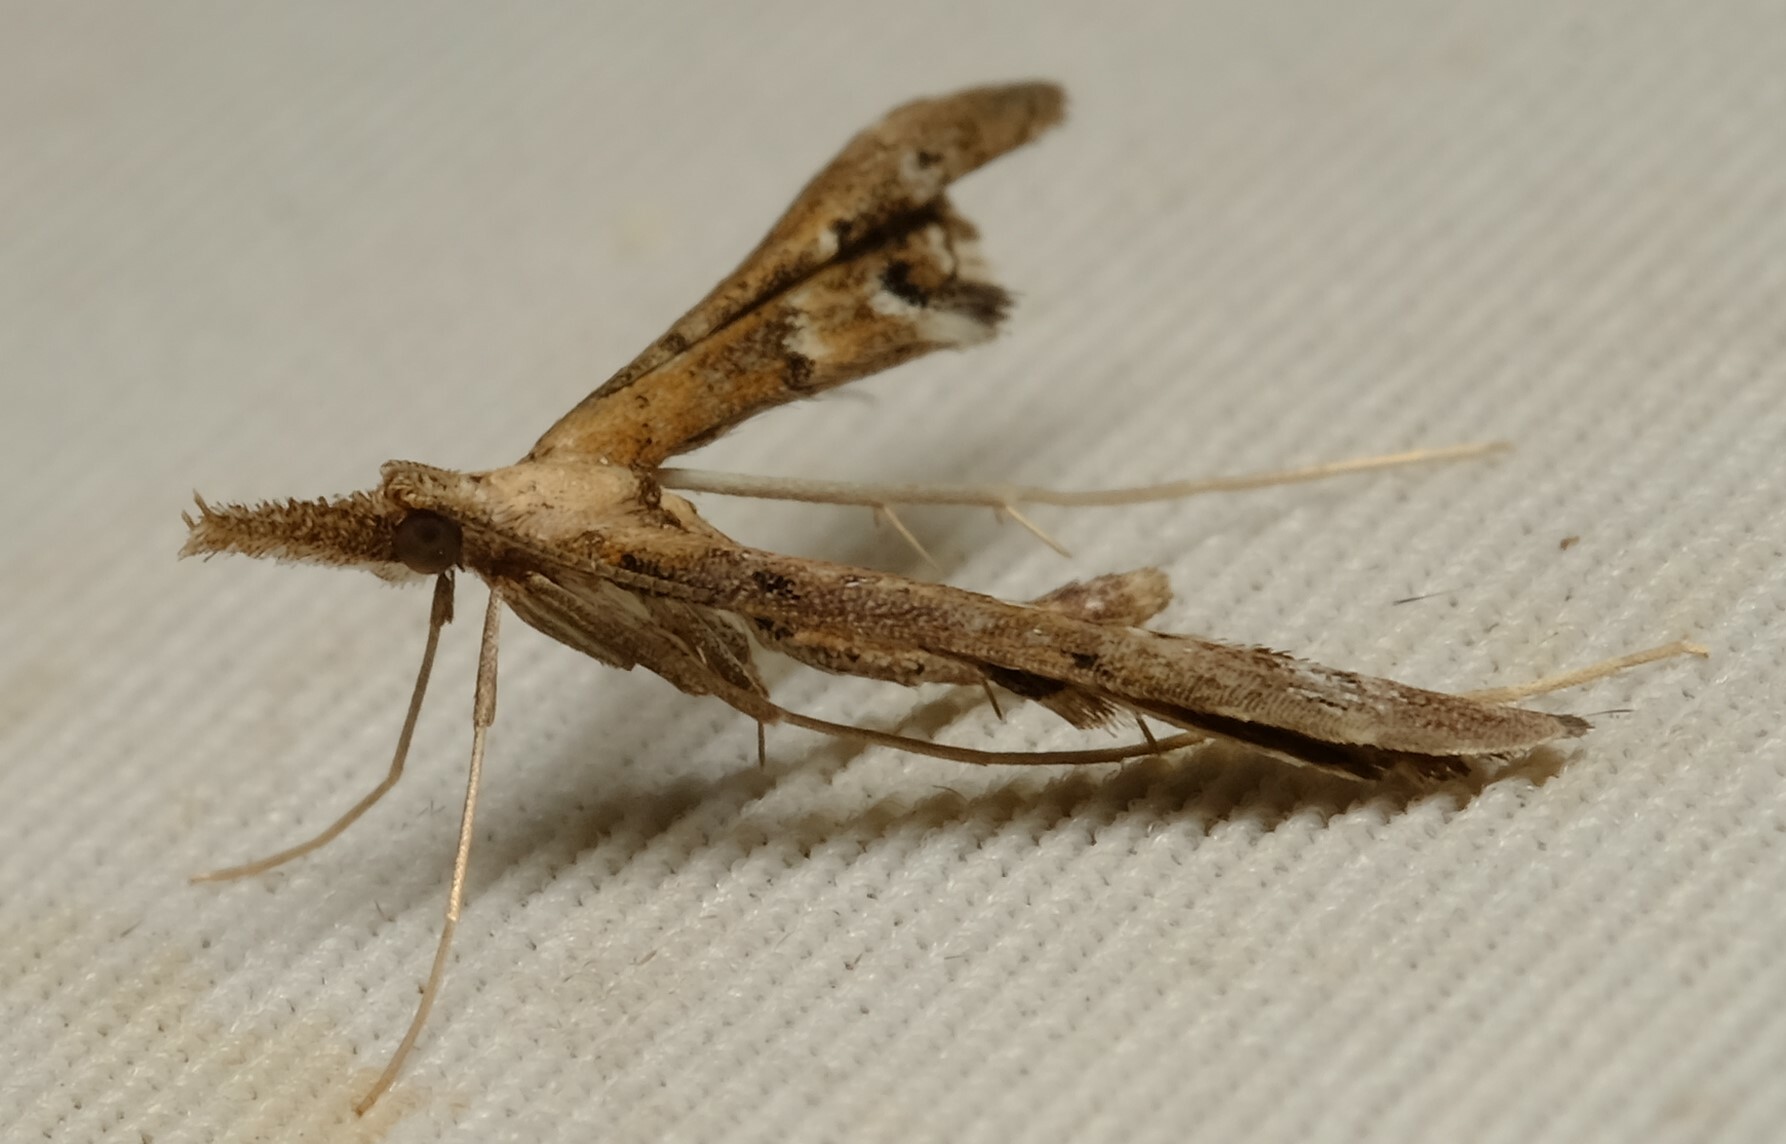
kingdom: Animalia
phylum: Arthropoda
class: Insecta
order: Lepidoptera
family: Alucitidae
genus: Tineodes
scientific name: Tineodes adactylalis
